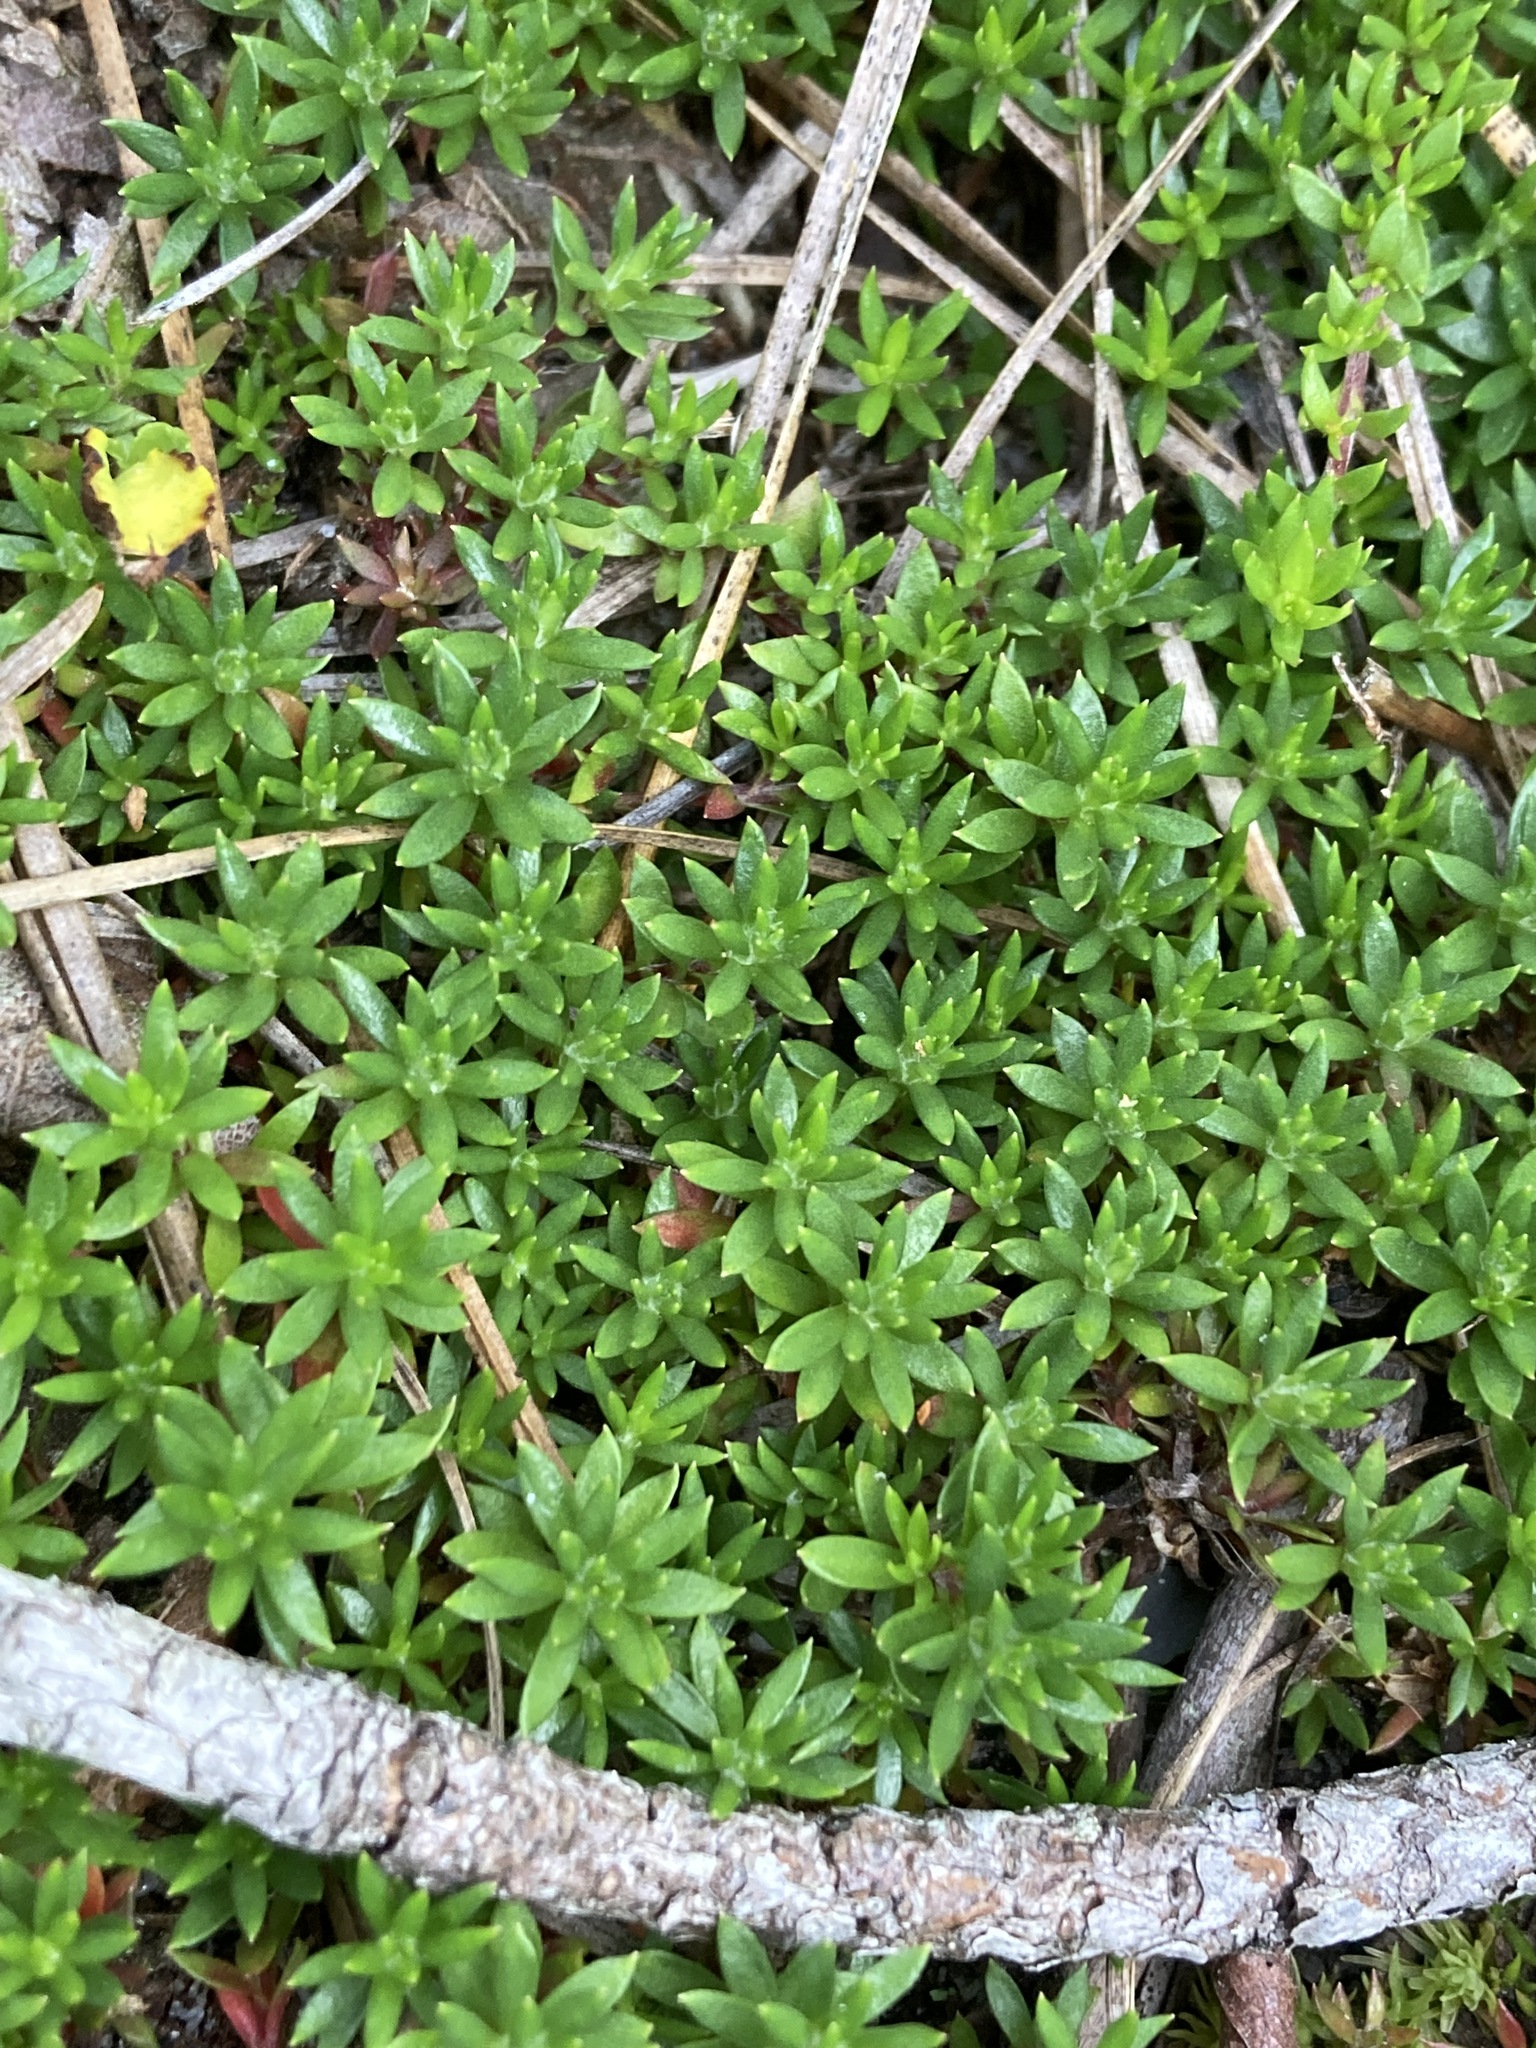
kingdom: Plantae
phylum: Tracheophyta
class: Magnoliopsida
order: Ericales
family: Diapensiaceae
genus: Pyxidanthera
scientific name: Pyxidanthera barbulata
